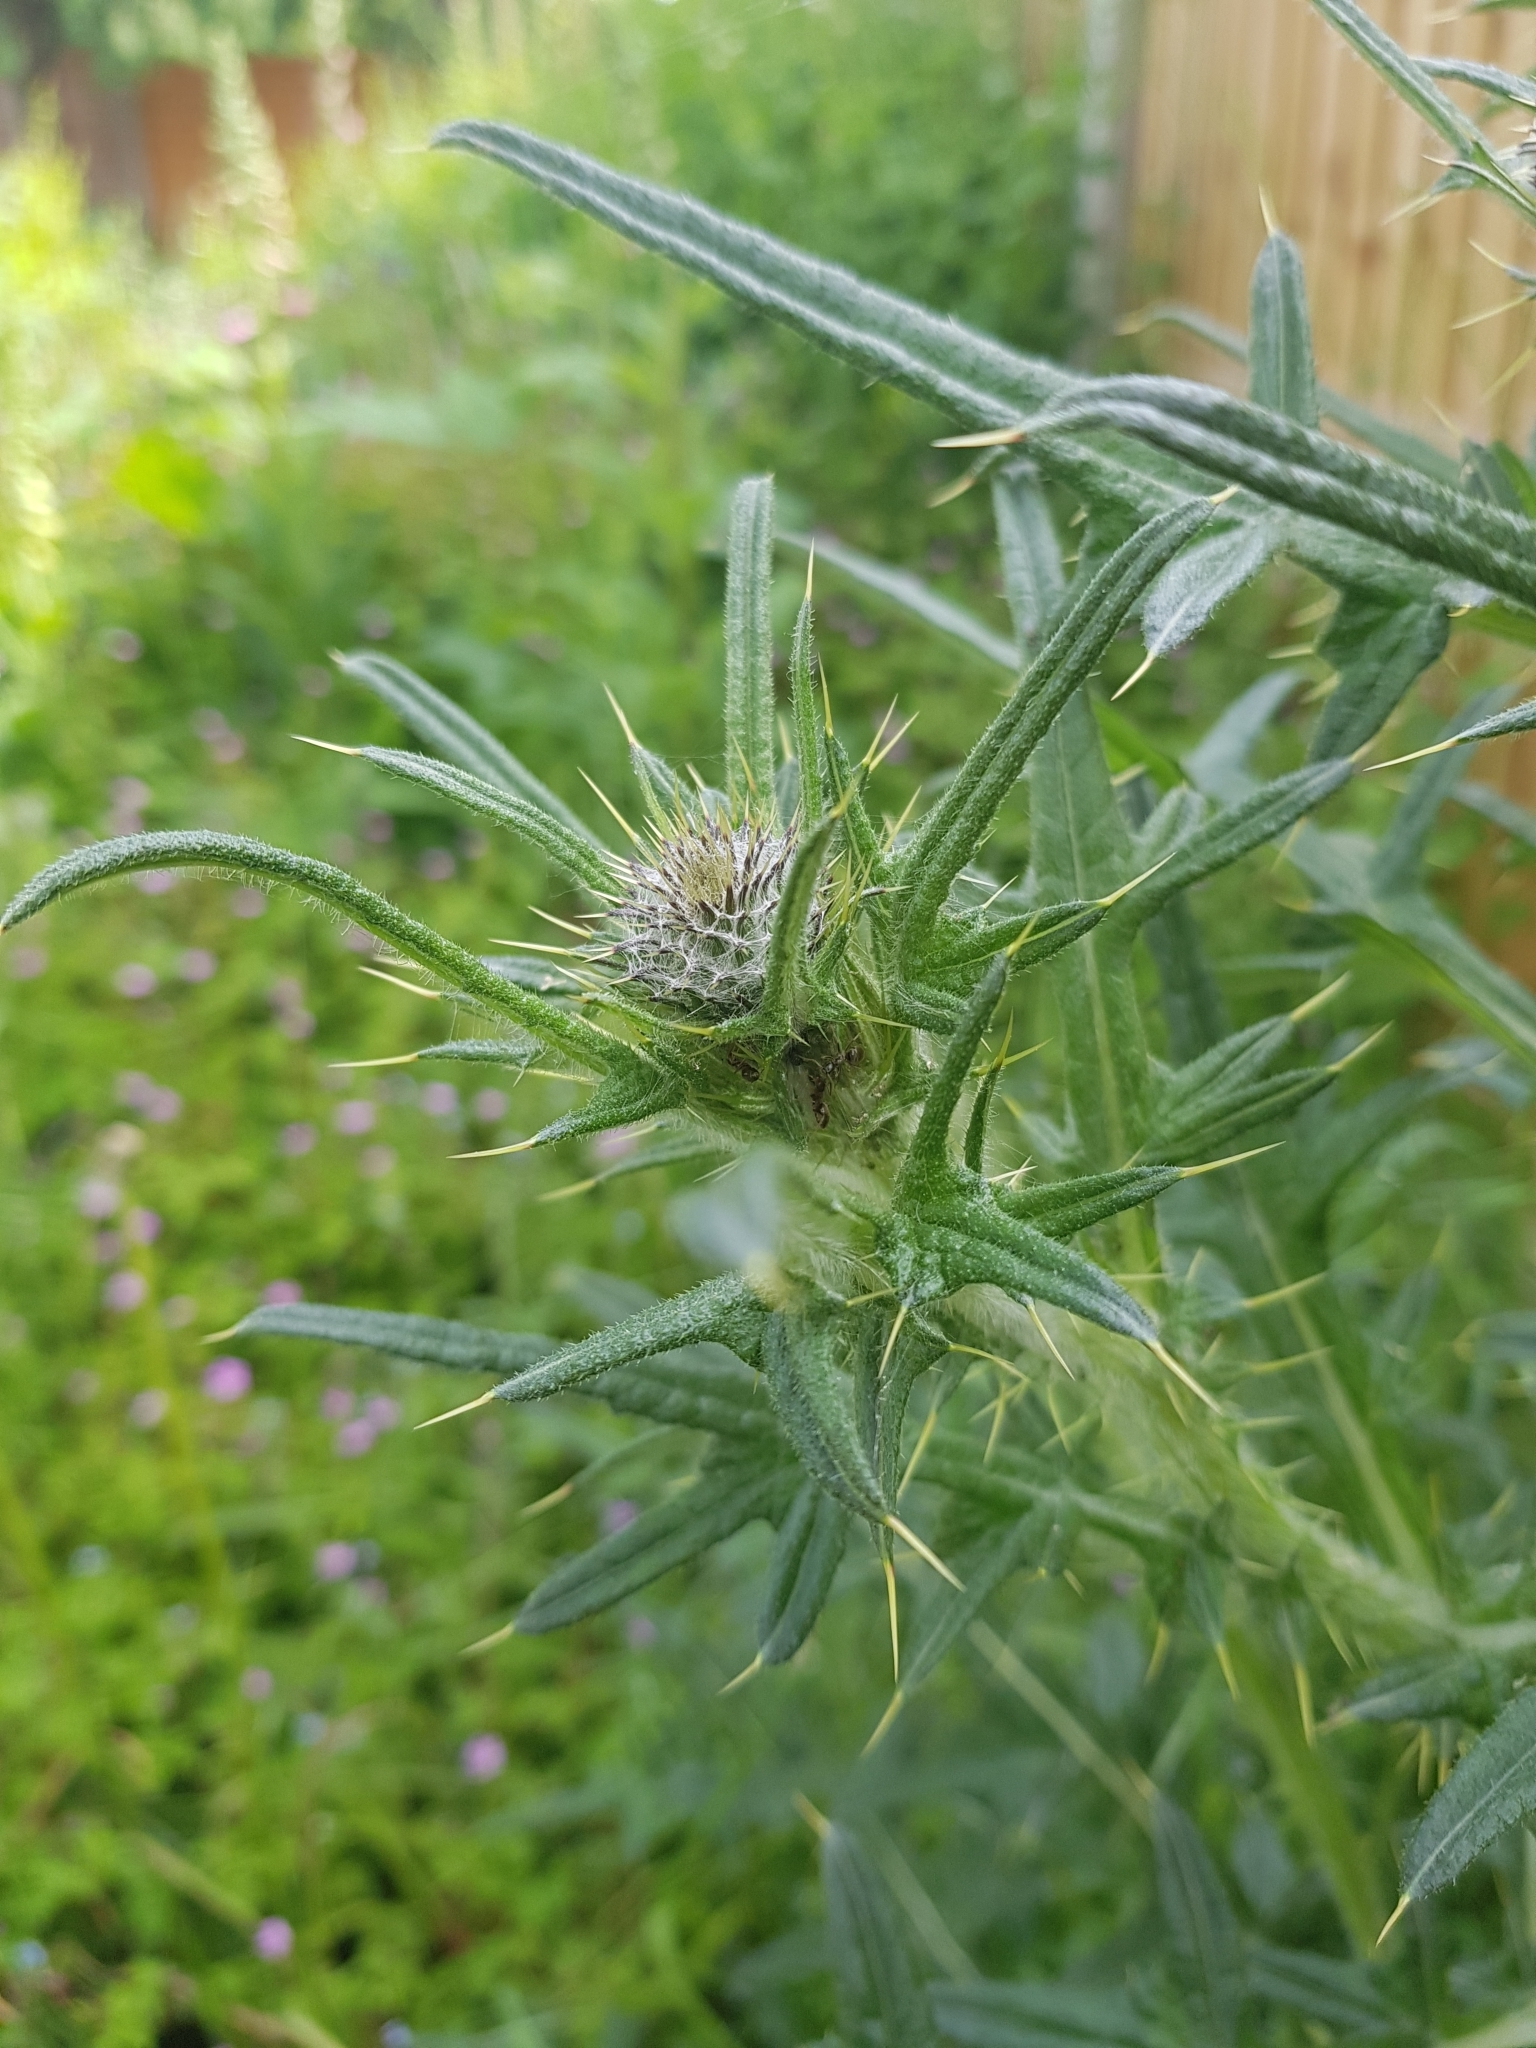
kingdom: Plantae
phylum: Tracheophyta
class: Magnoliopsida
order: Asterales
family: Asteraceae
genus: Cirsium
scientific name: Cirsium vulgare
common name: Bull thistle
